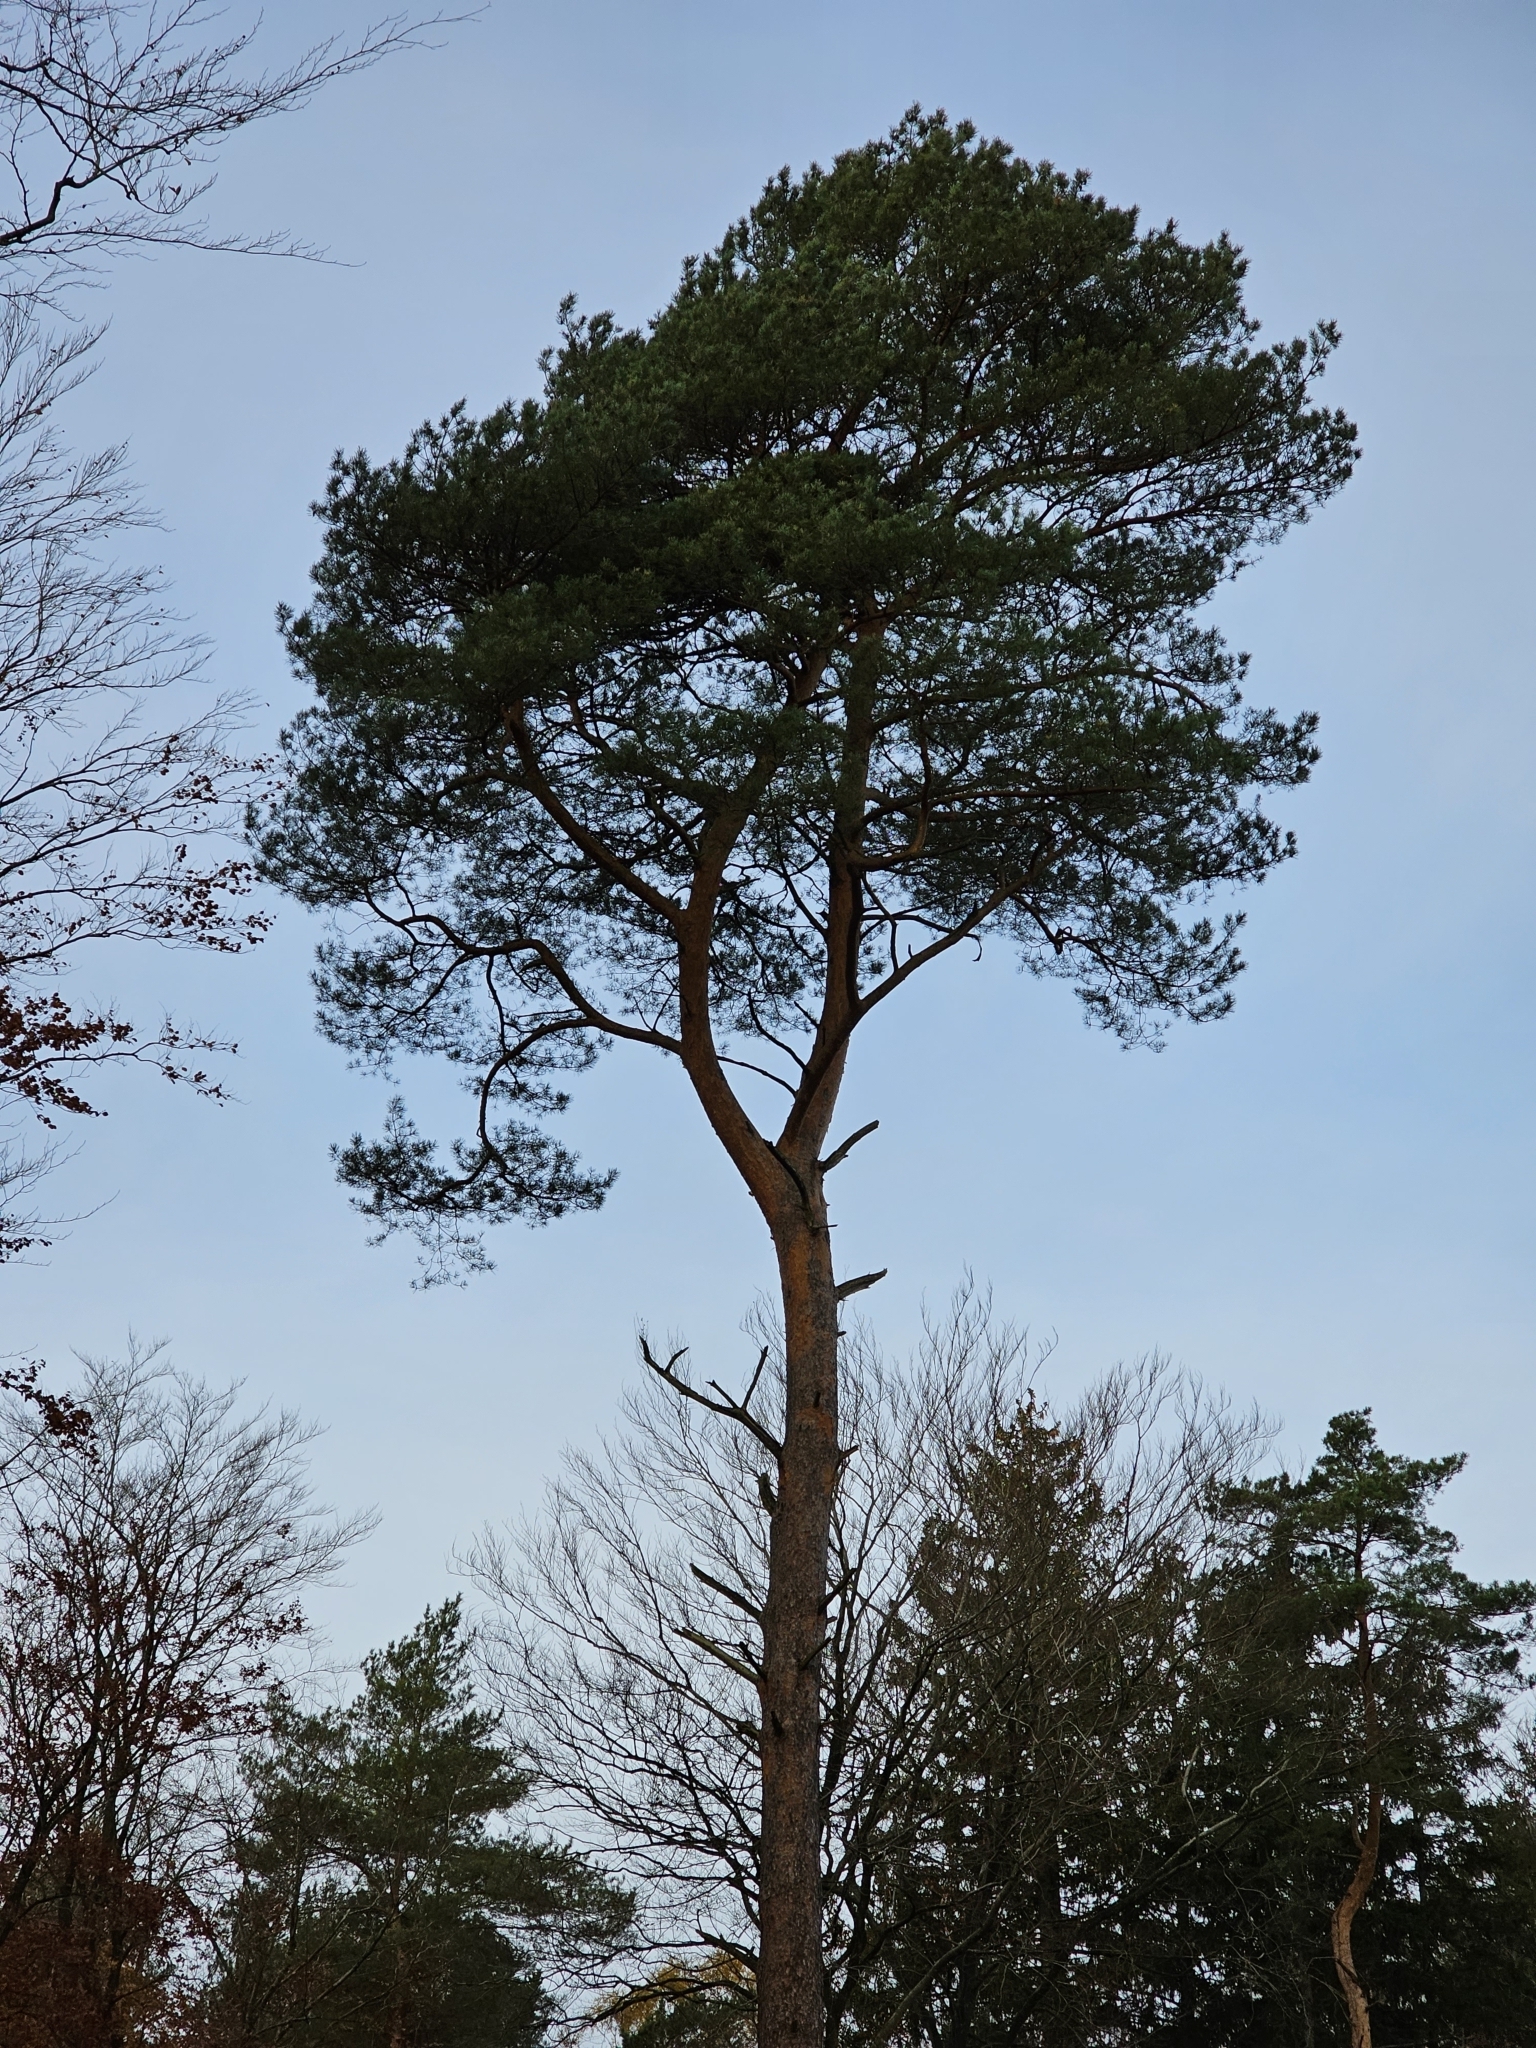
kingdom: Plantae
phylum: Tracheophyta
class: Pinopsida
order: Pinales
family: Pinaceae
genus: Pinus
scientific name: Pinus sylvestris
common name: Scots pine
